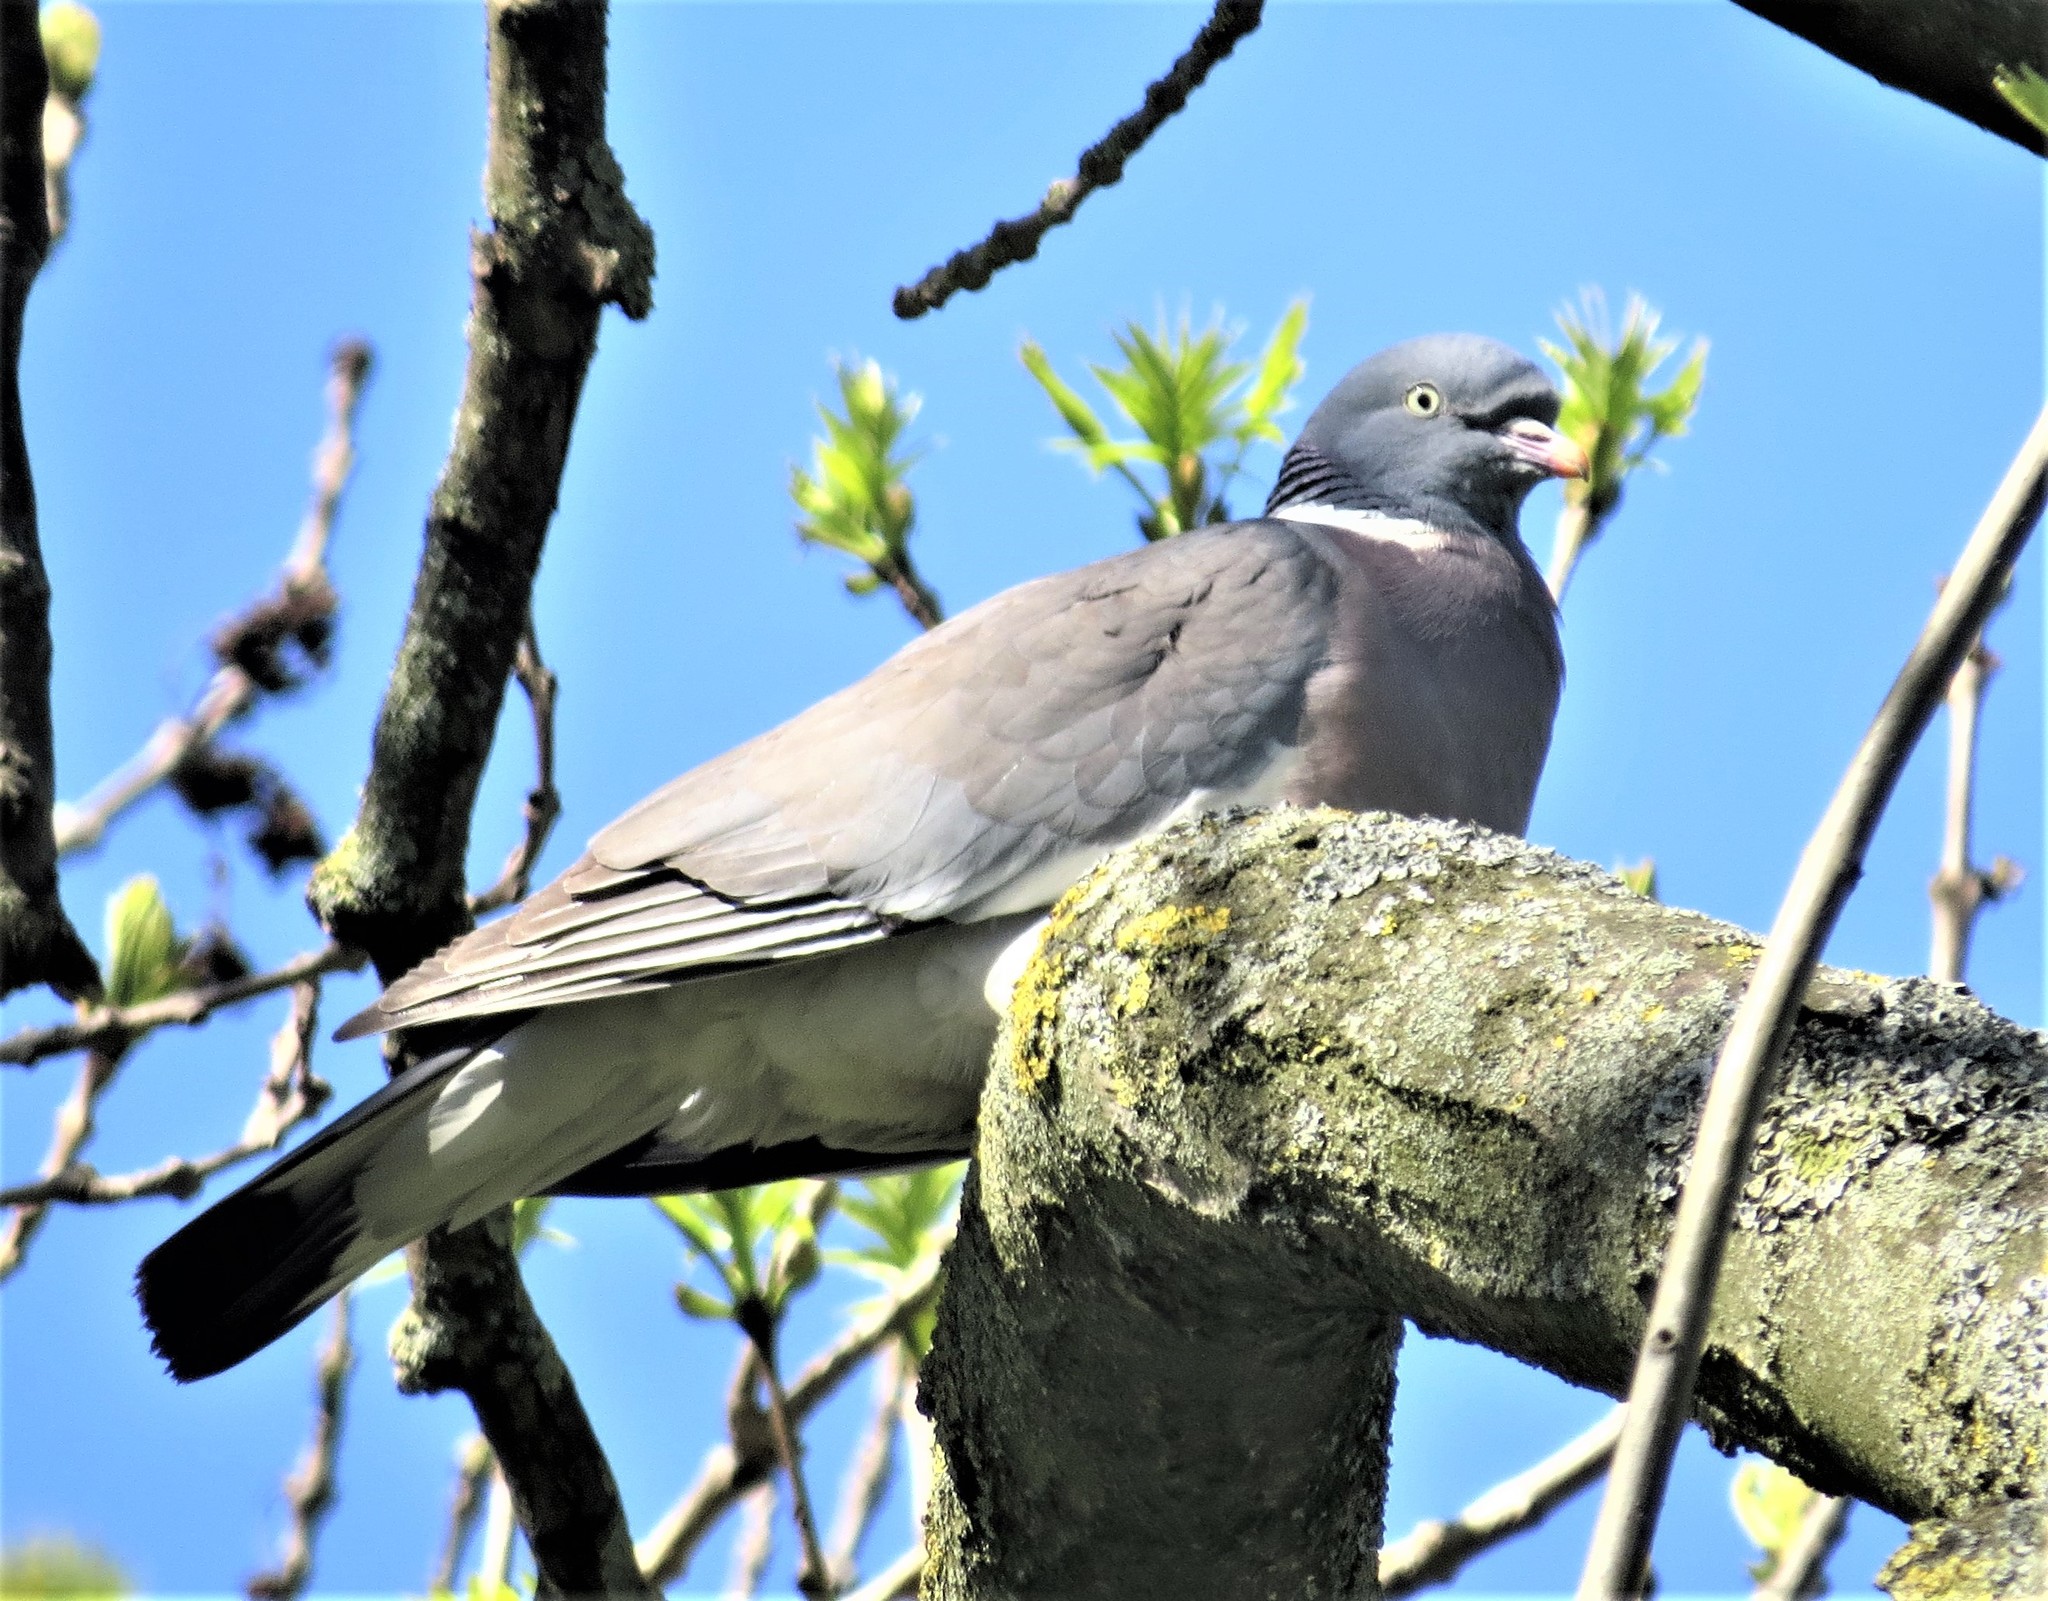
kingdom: Animalia
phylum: Chordata
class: Aves
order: Columbiformes
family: Columbidae
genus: Columba
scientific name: Columba palumbus
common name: Common wood pigeon
